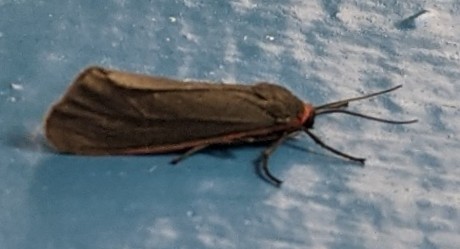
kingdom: Animalia
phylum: Arthropoda
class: Insecta
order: Lepidoptera
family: Erebidae
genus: Virbia
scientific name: Virbia laeta
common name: Joyful holomelina moth
